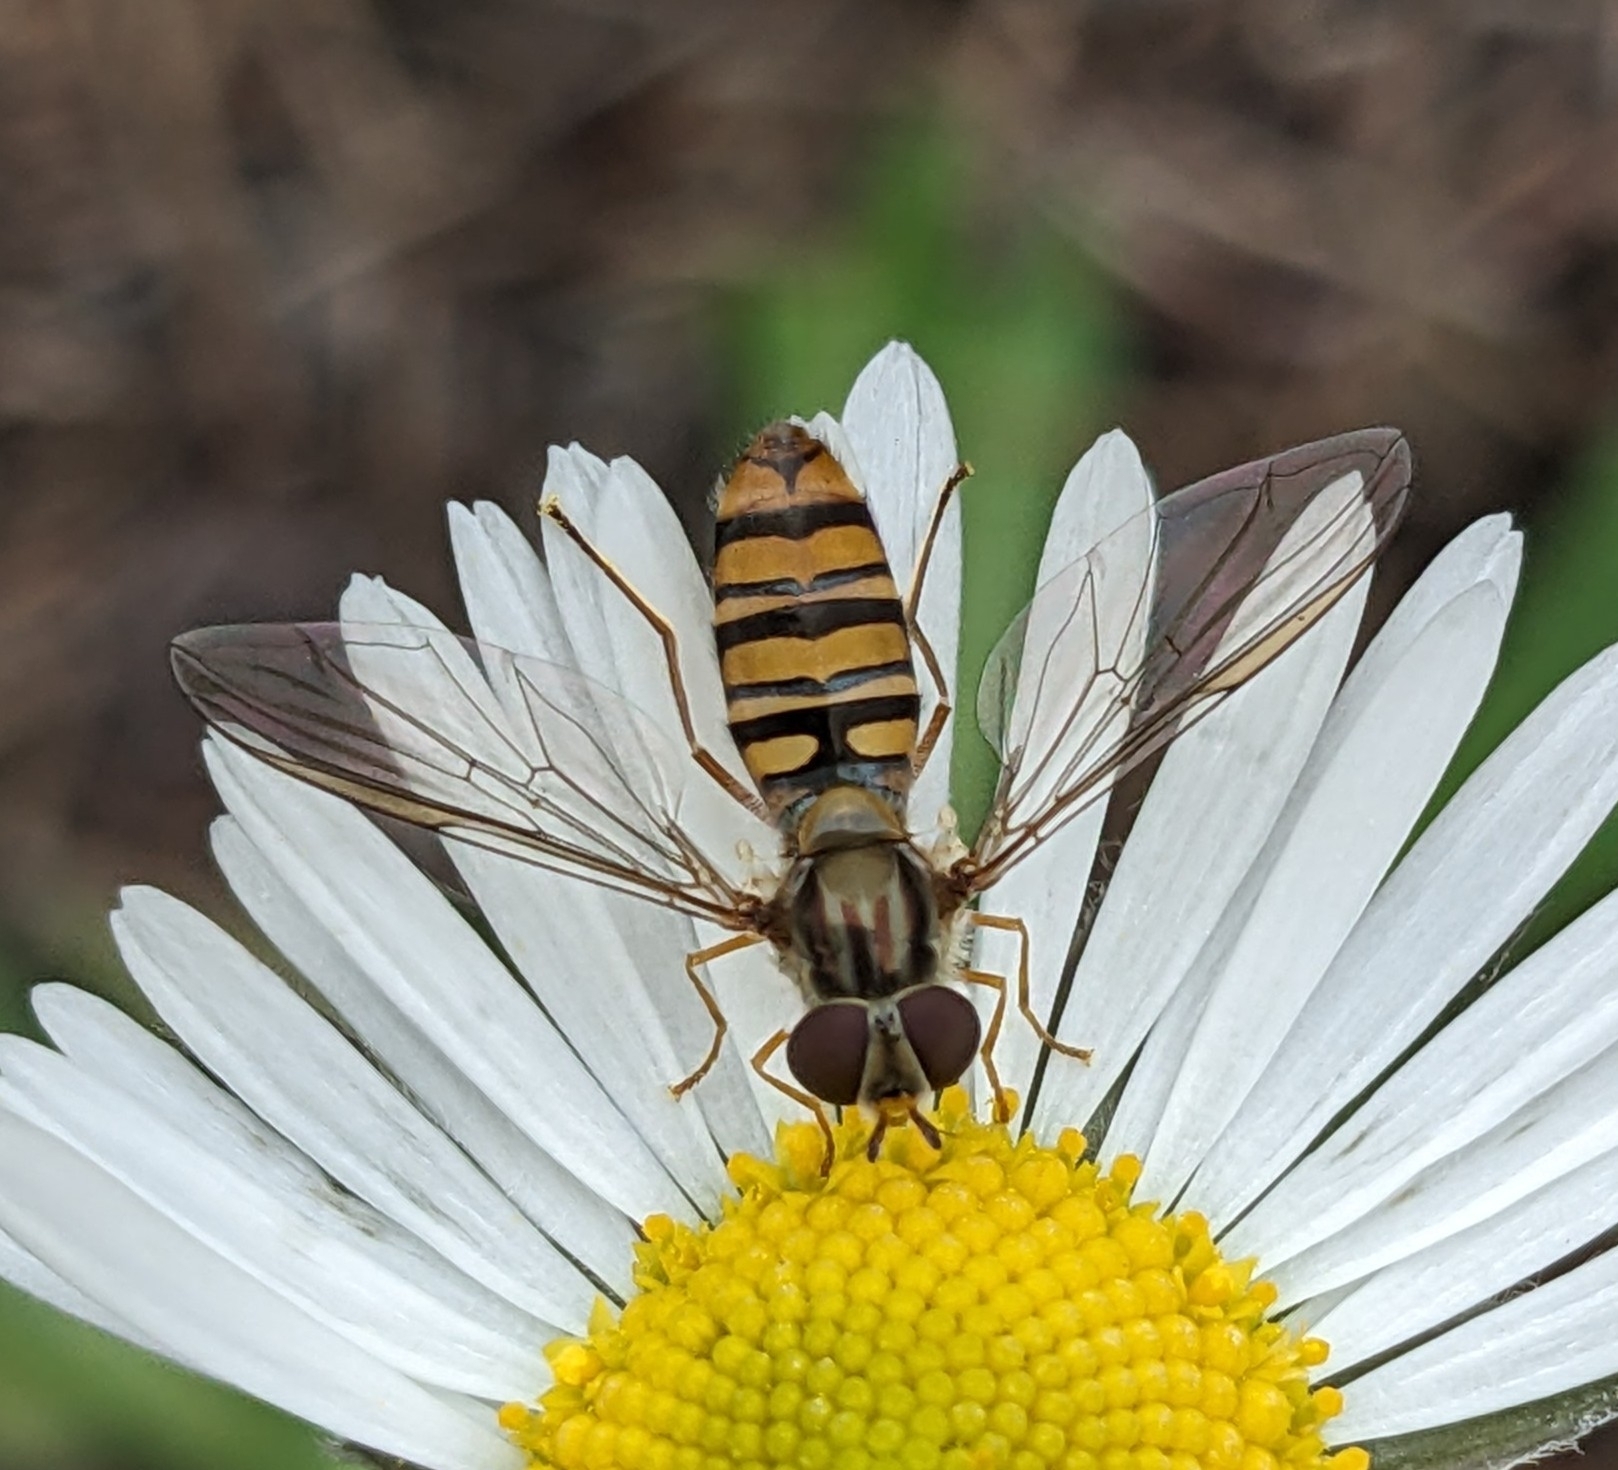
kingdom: Animalia
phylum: Arthropoda
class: Insecta
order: Diptera
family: Syrphidae
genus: Episyrphus
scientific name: Episyrphus balteatus
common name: Marmalade hoverfly
